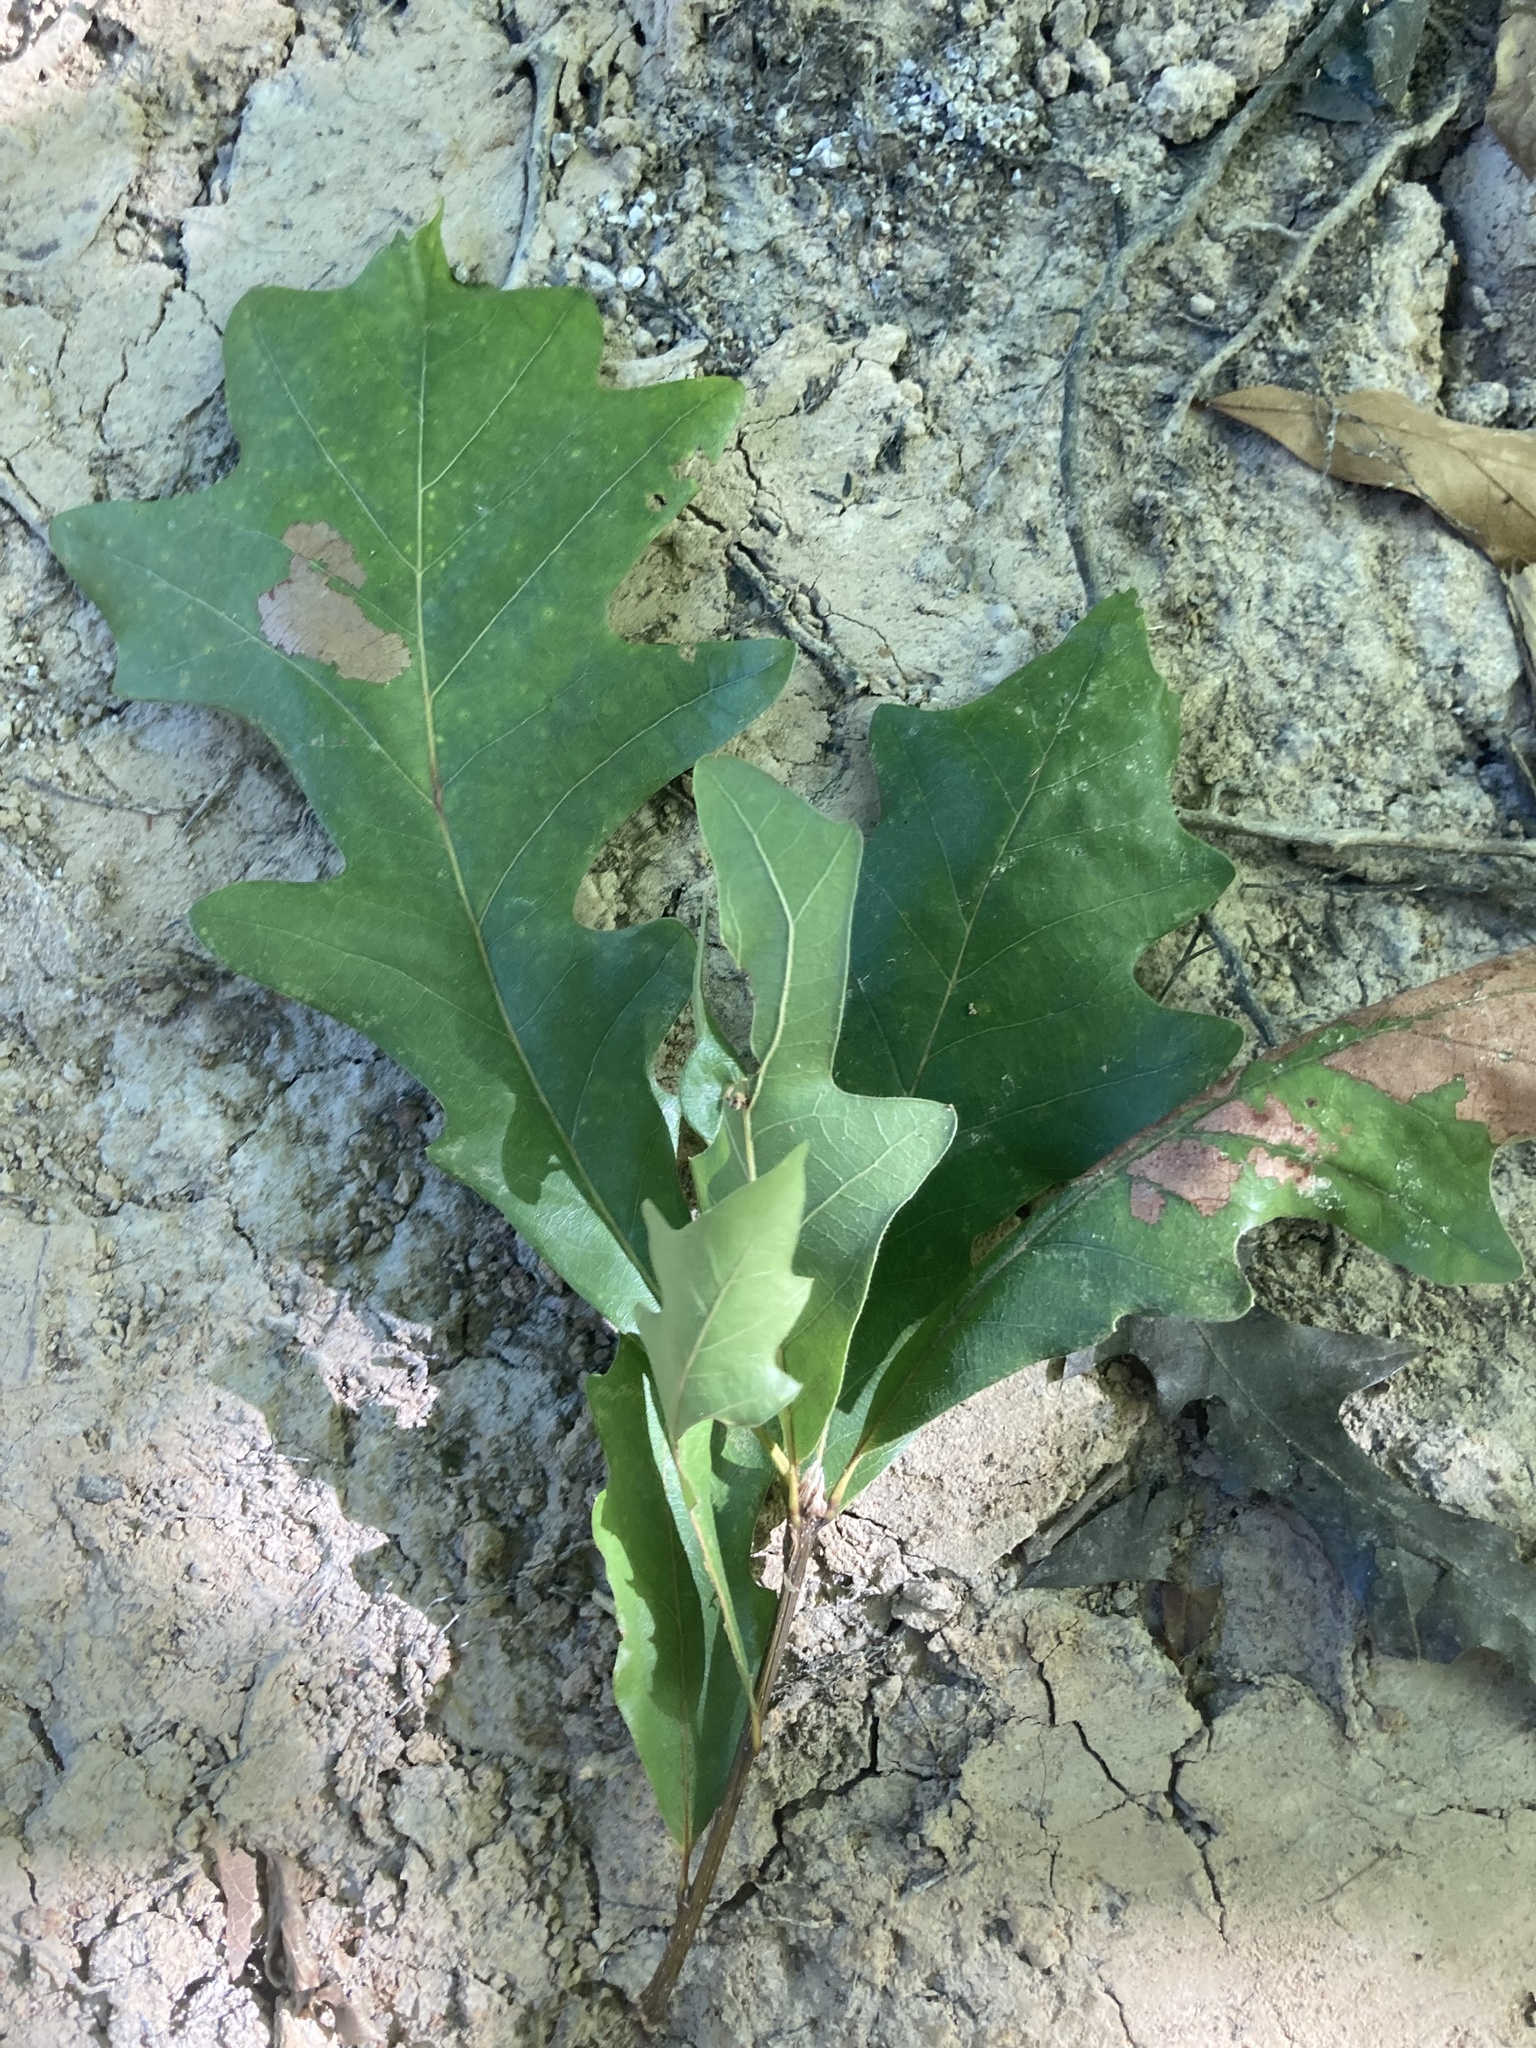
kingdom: Plantae
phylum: Tracheophyta
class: Magnoliopsida
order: Fagales
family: Fagaceae
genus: Quercus
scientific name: Quercus lyrata
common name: Overcup oak
